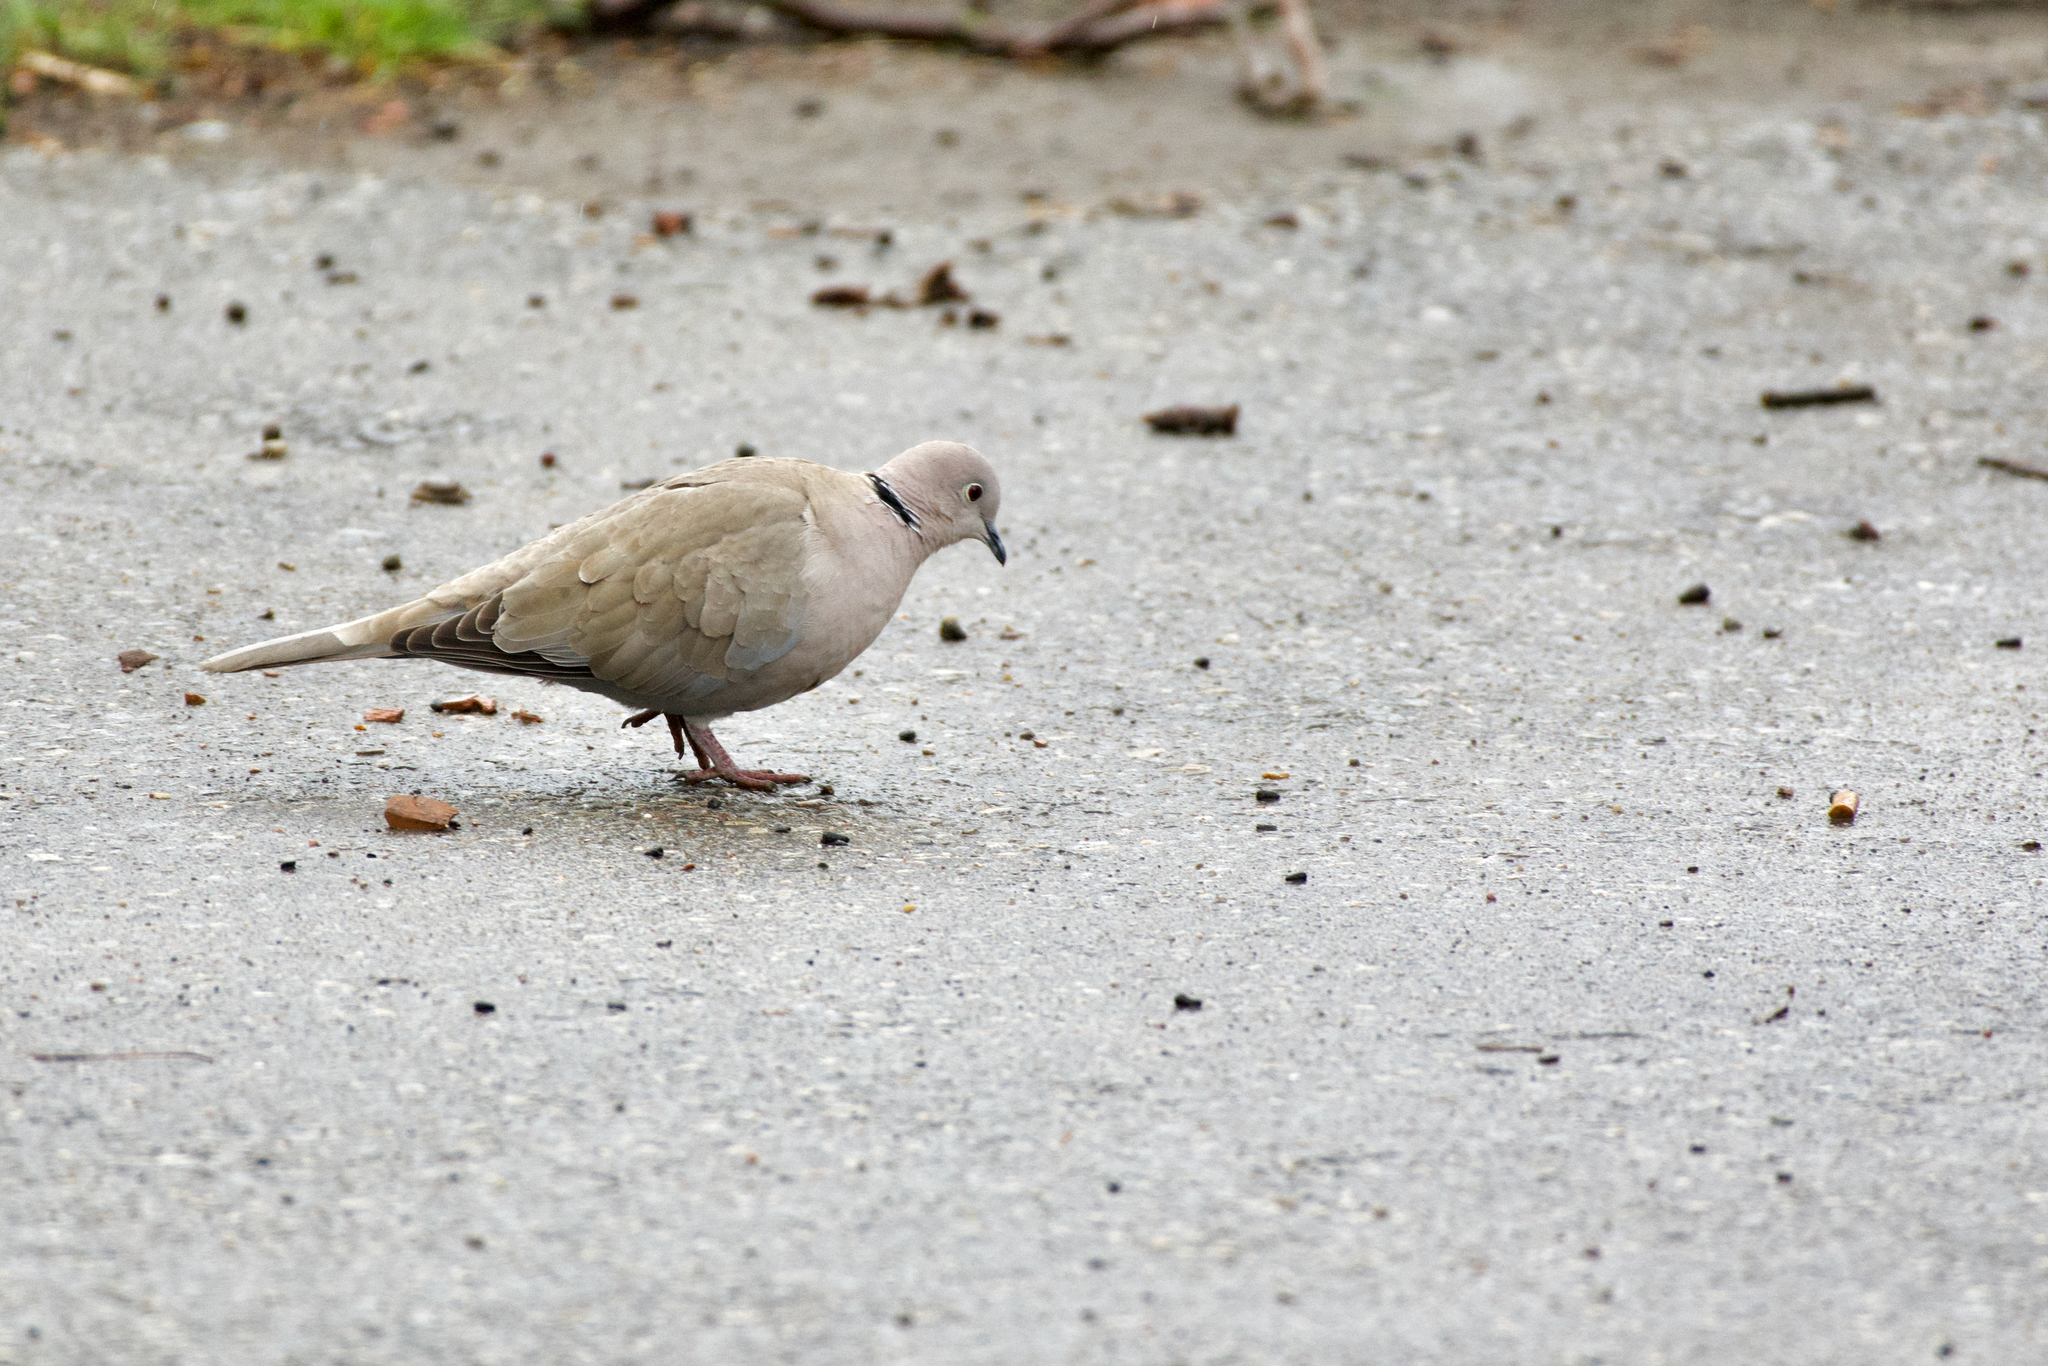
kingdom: Animalia
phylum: Chordata
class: Aves
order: Columbiformes
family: Columbidae
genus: Streptopelia
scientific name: Streptopelia decaocto
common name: Eurasian collared dove
